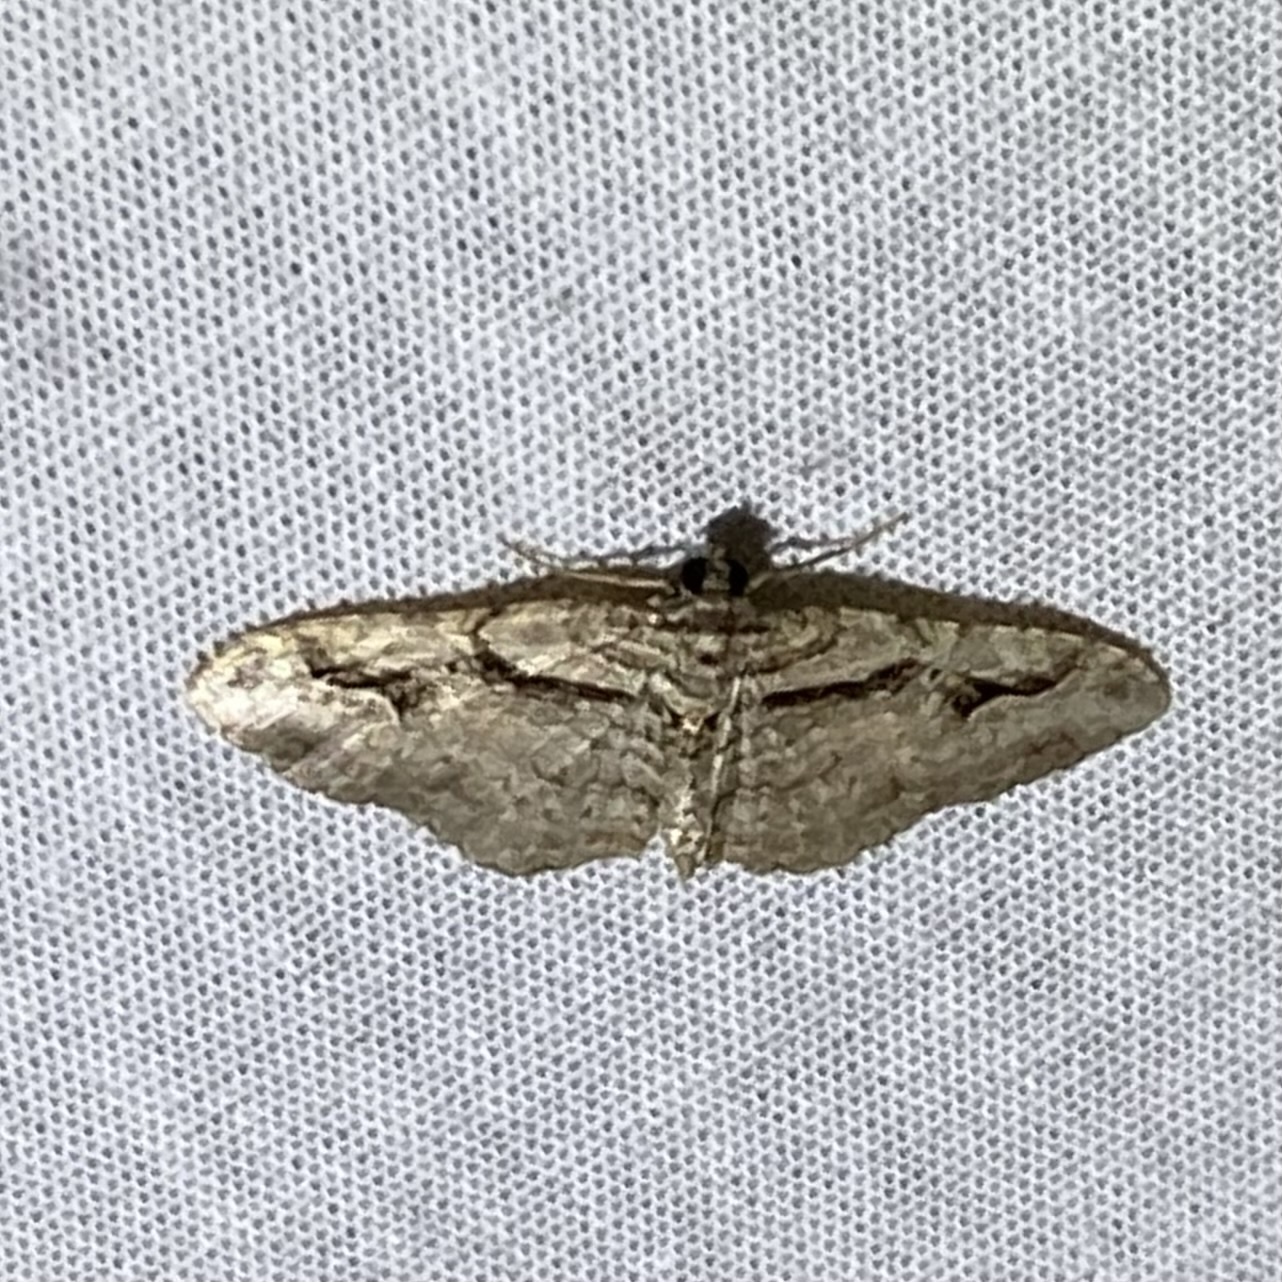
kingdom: Animalia
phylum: Arthropoda
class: Insecta
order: Lepidoptera
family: Geometridae
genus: Costaconvexa
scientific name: Costaconvexa centrostrigaria
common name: Bent-line carpet
